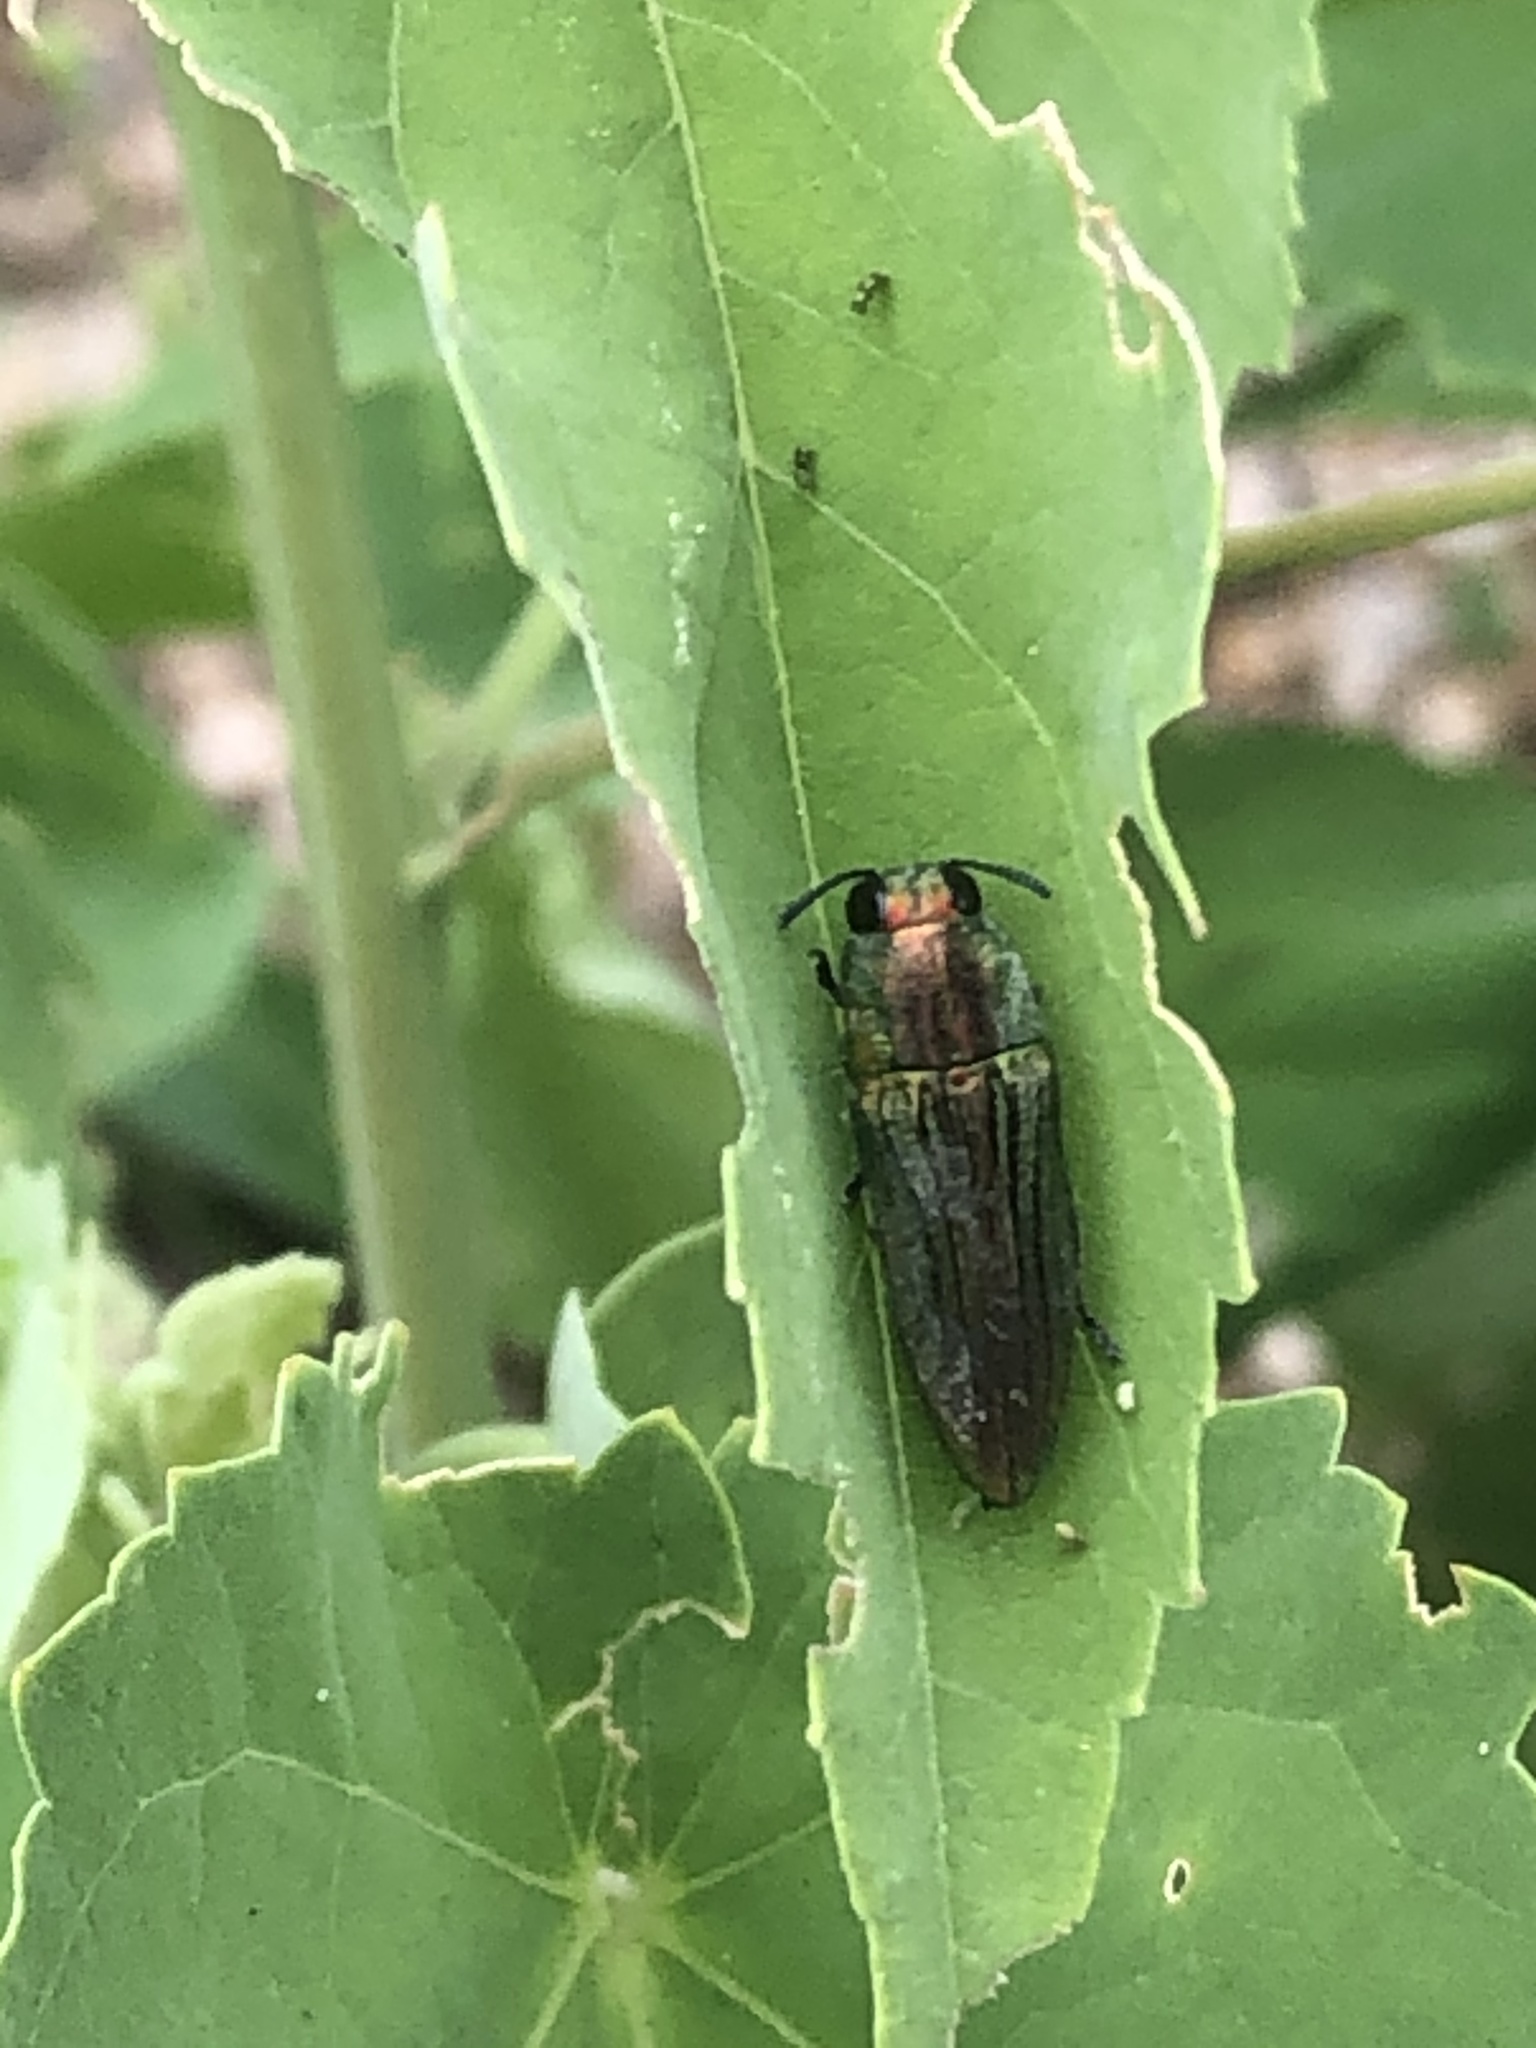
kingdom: Animalia
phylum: Arthropoda
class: Insecta
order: Coleoptera
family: Buprestidae
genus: Agaeocera
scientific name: Agaeocera scintillans
